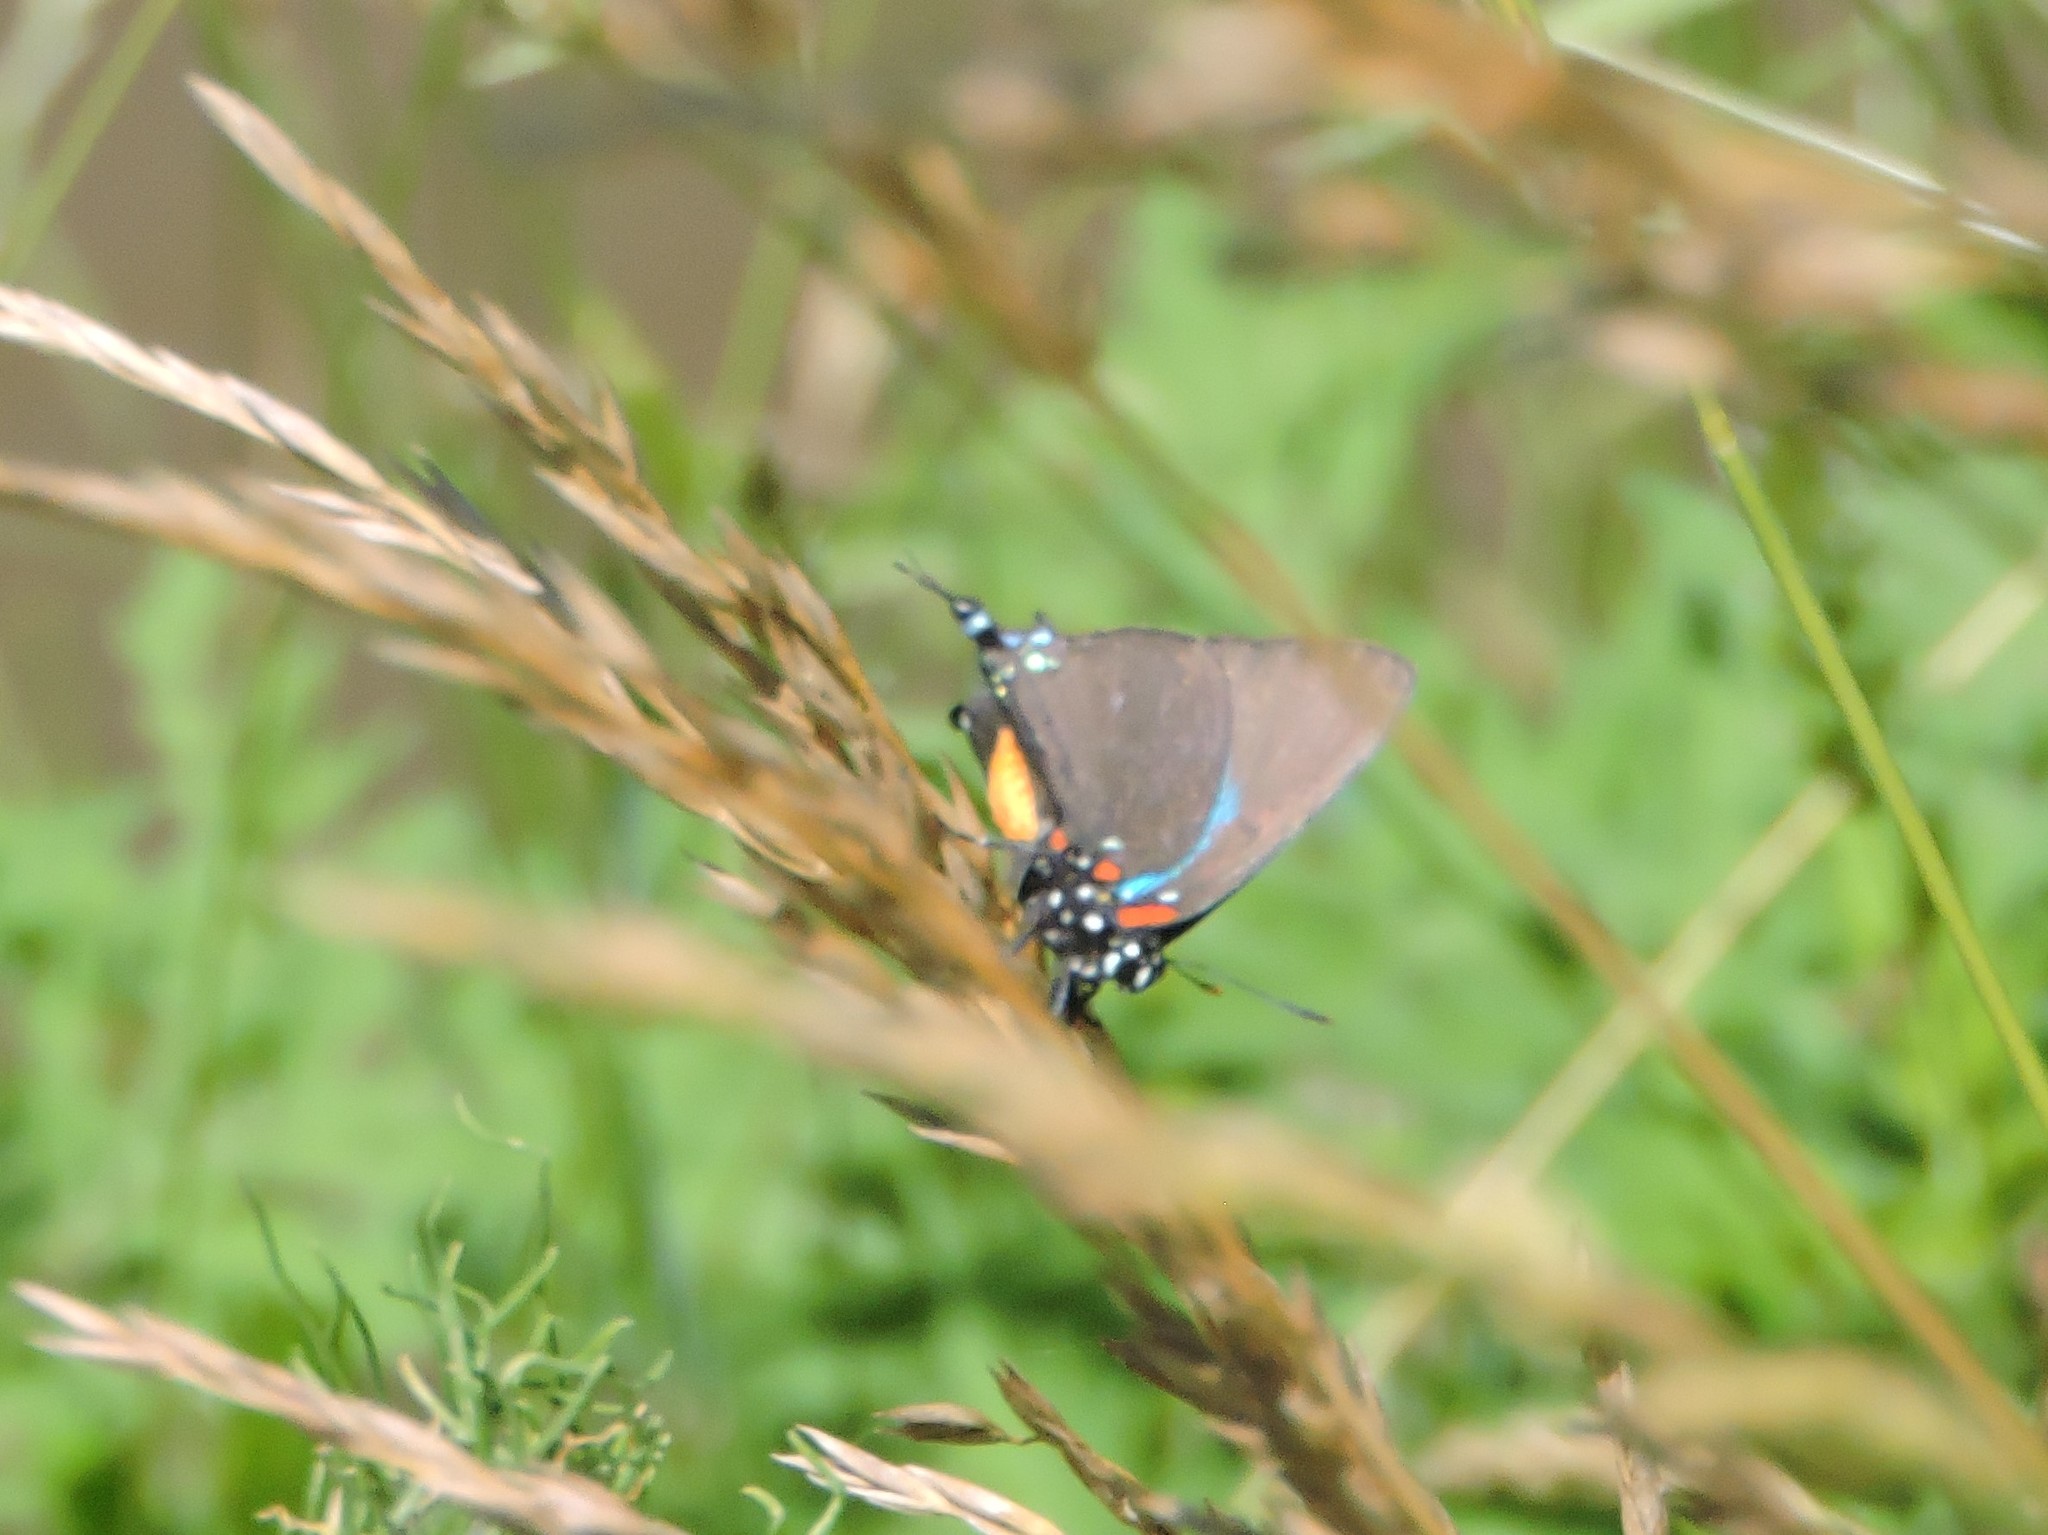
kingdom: Animalia
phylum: Arthropoda
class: Insecta
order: Lepidoptera
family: Lycaenidae
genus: Atlides
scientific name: Atlides halesus
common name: Great purple hairstreak
